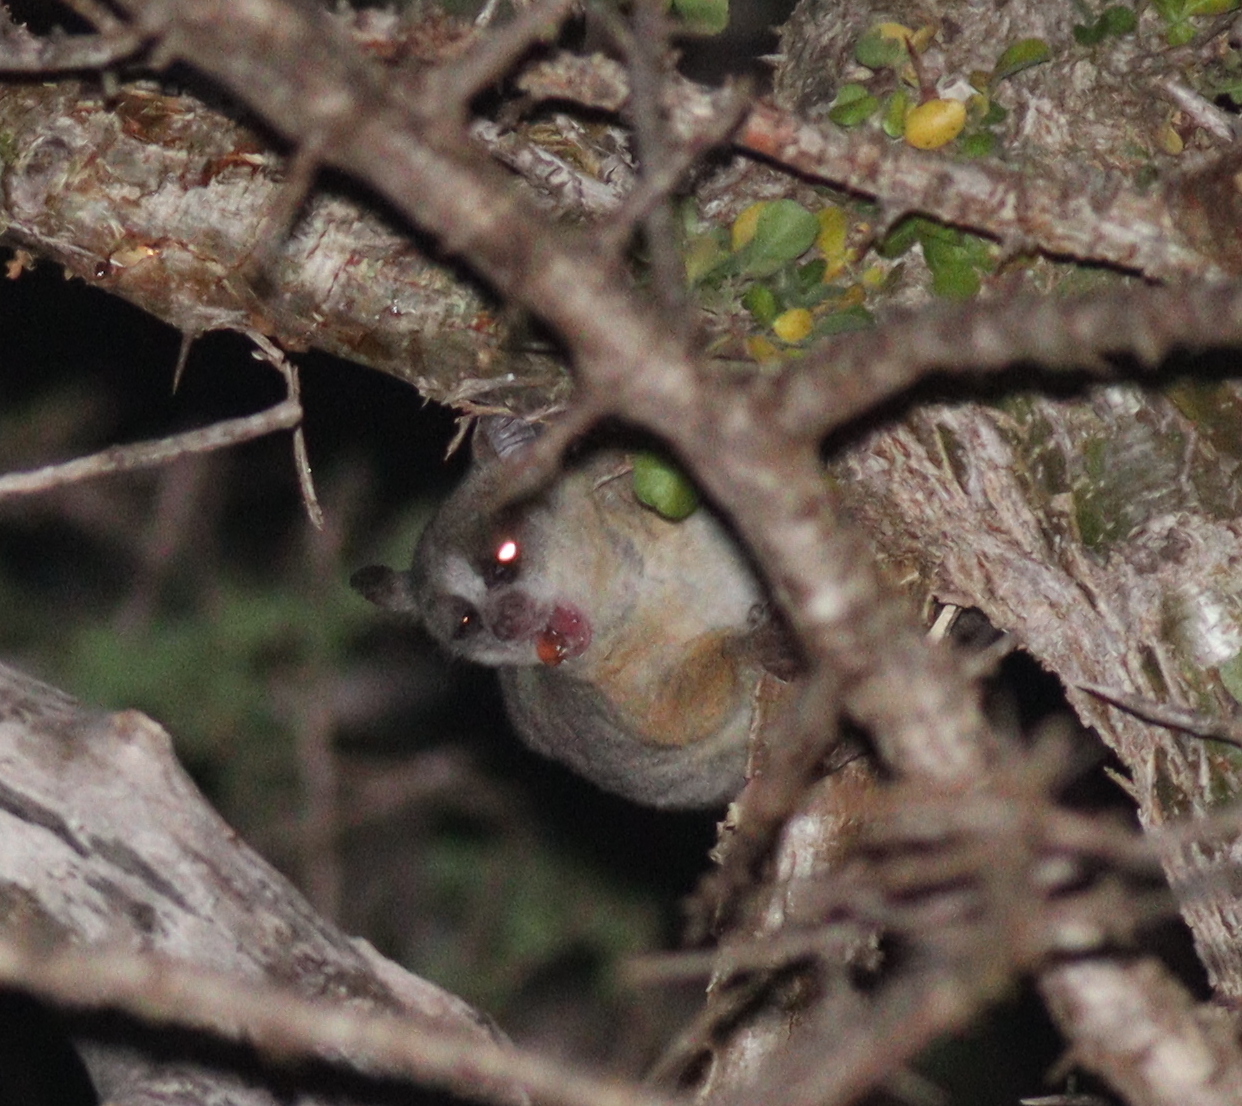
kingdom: Animalia
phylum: Chordata
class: Mammalia
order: Primates
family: Galagidae
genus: Galago
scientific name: Galago senegalensis
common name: Senegal bushbaby
